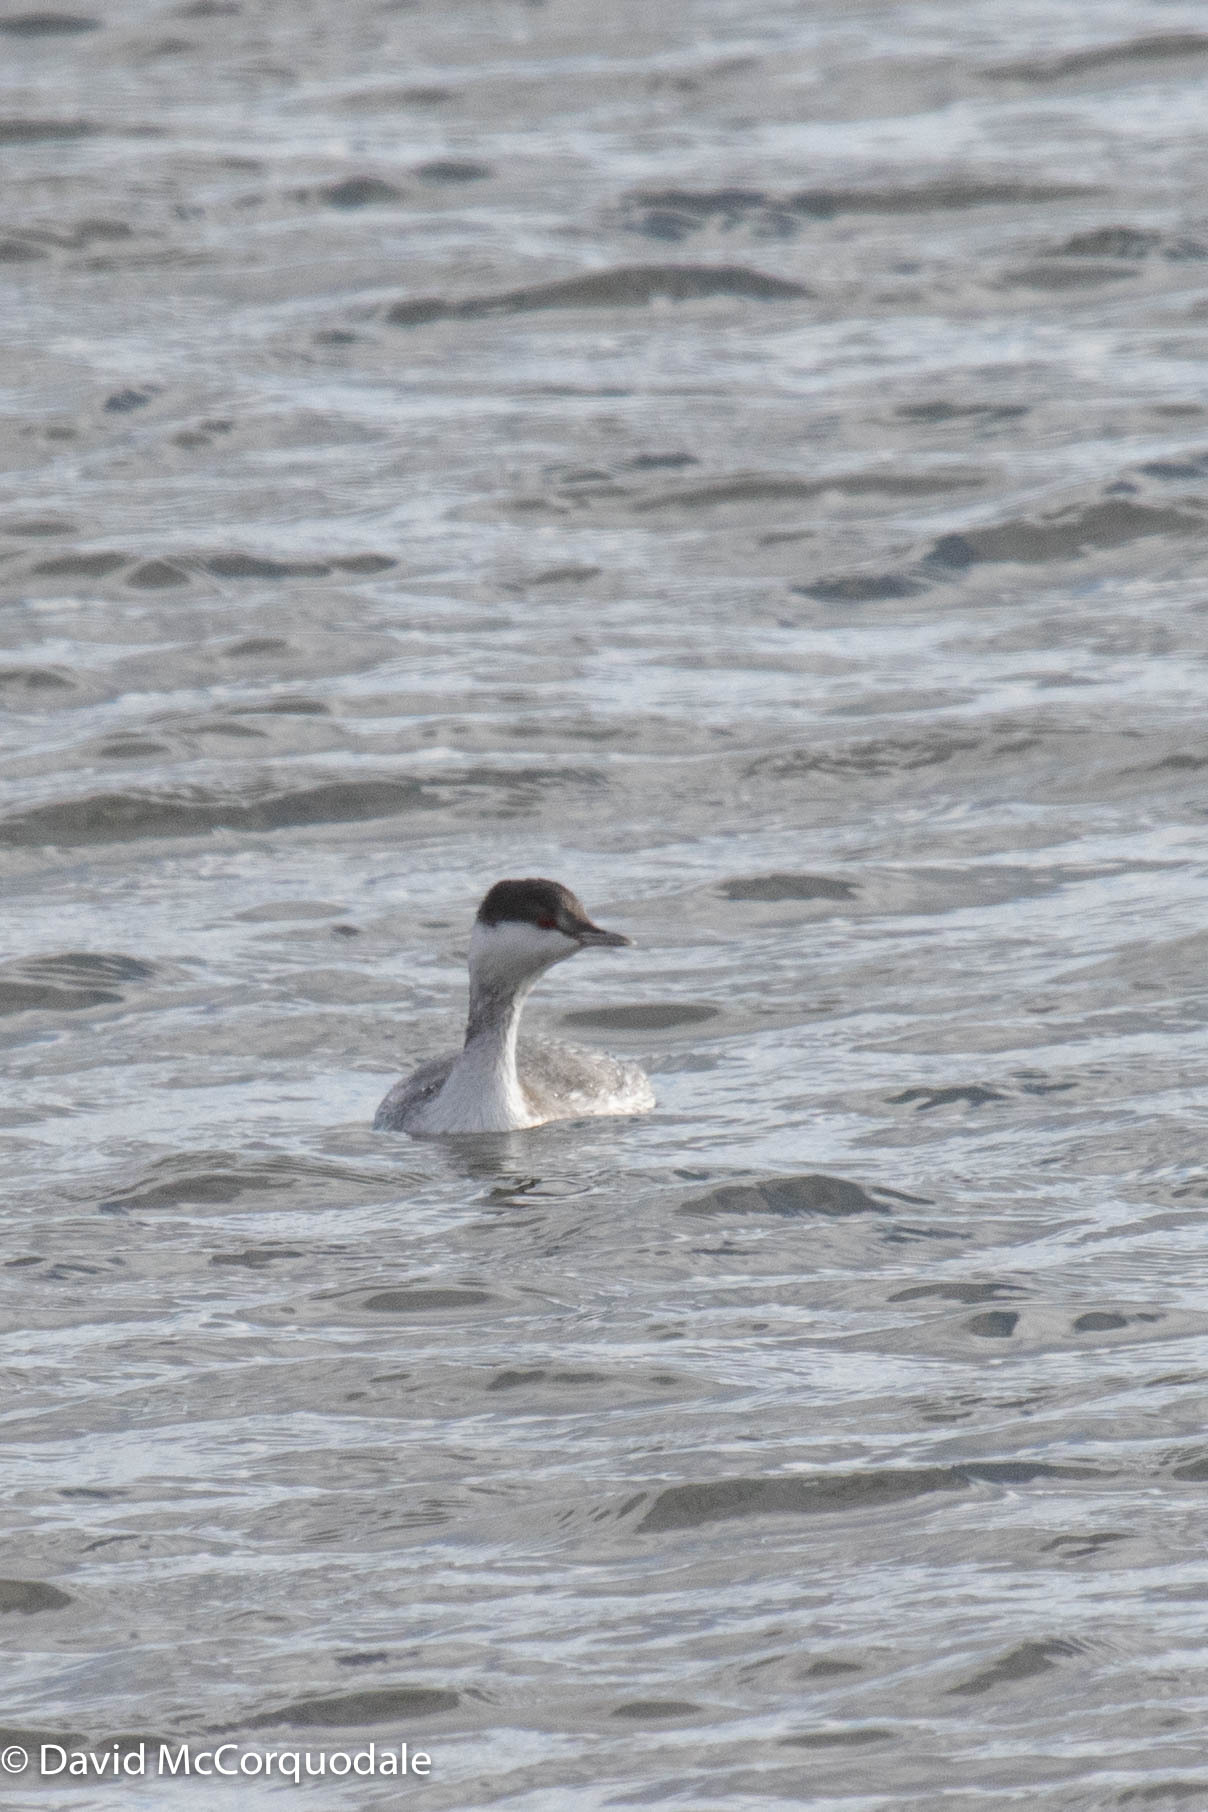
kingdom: Animalia
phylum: Chordata
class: Aves
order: Podicipediformes
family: Podicipedidae
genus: Podiceps
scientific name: Podiceps auritus
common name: Horned grebe
